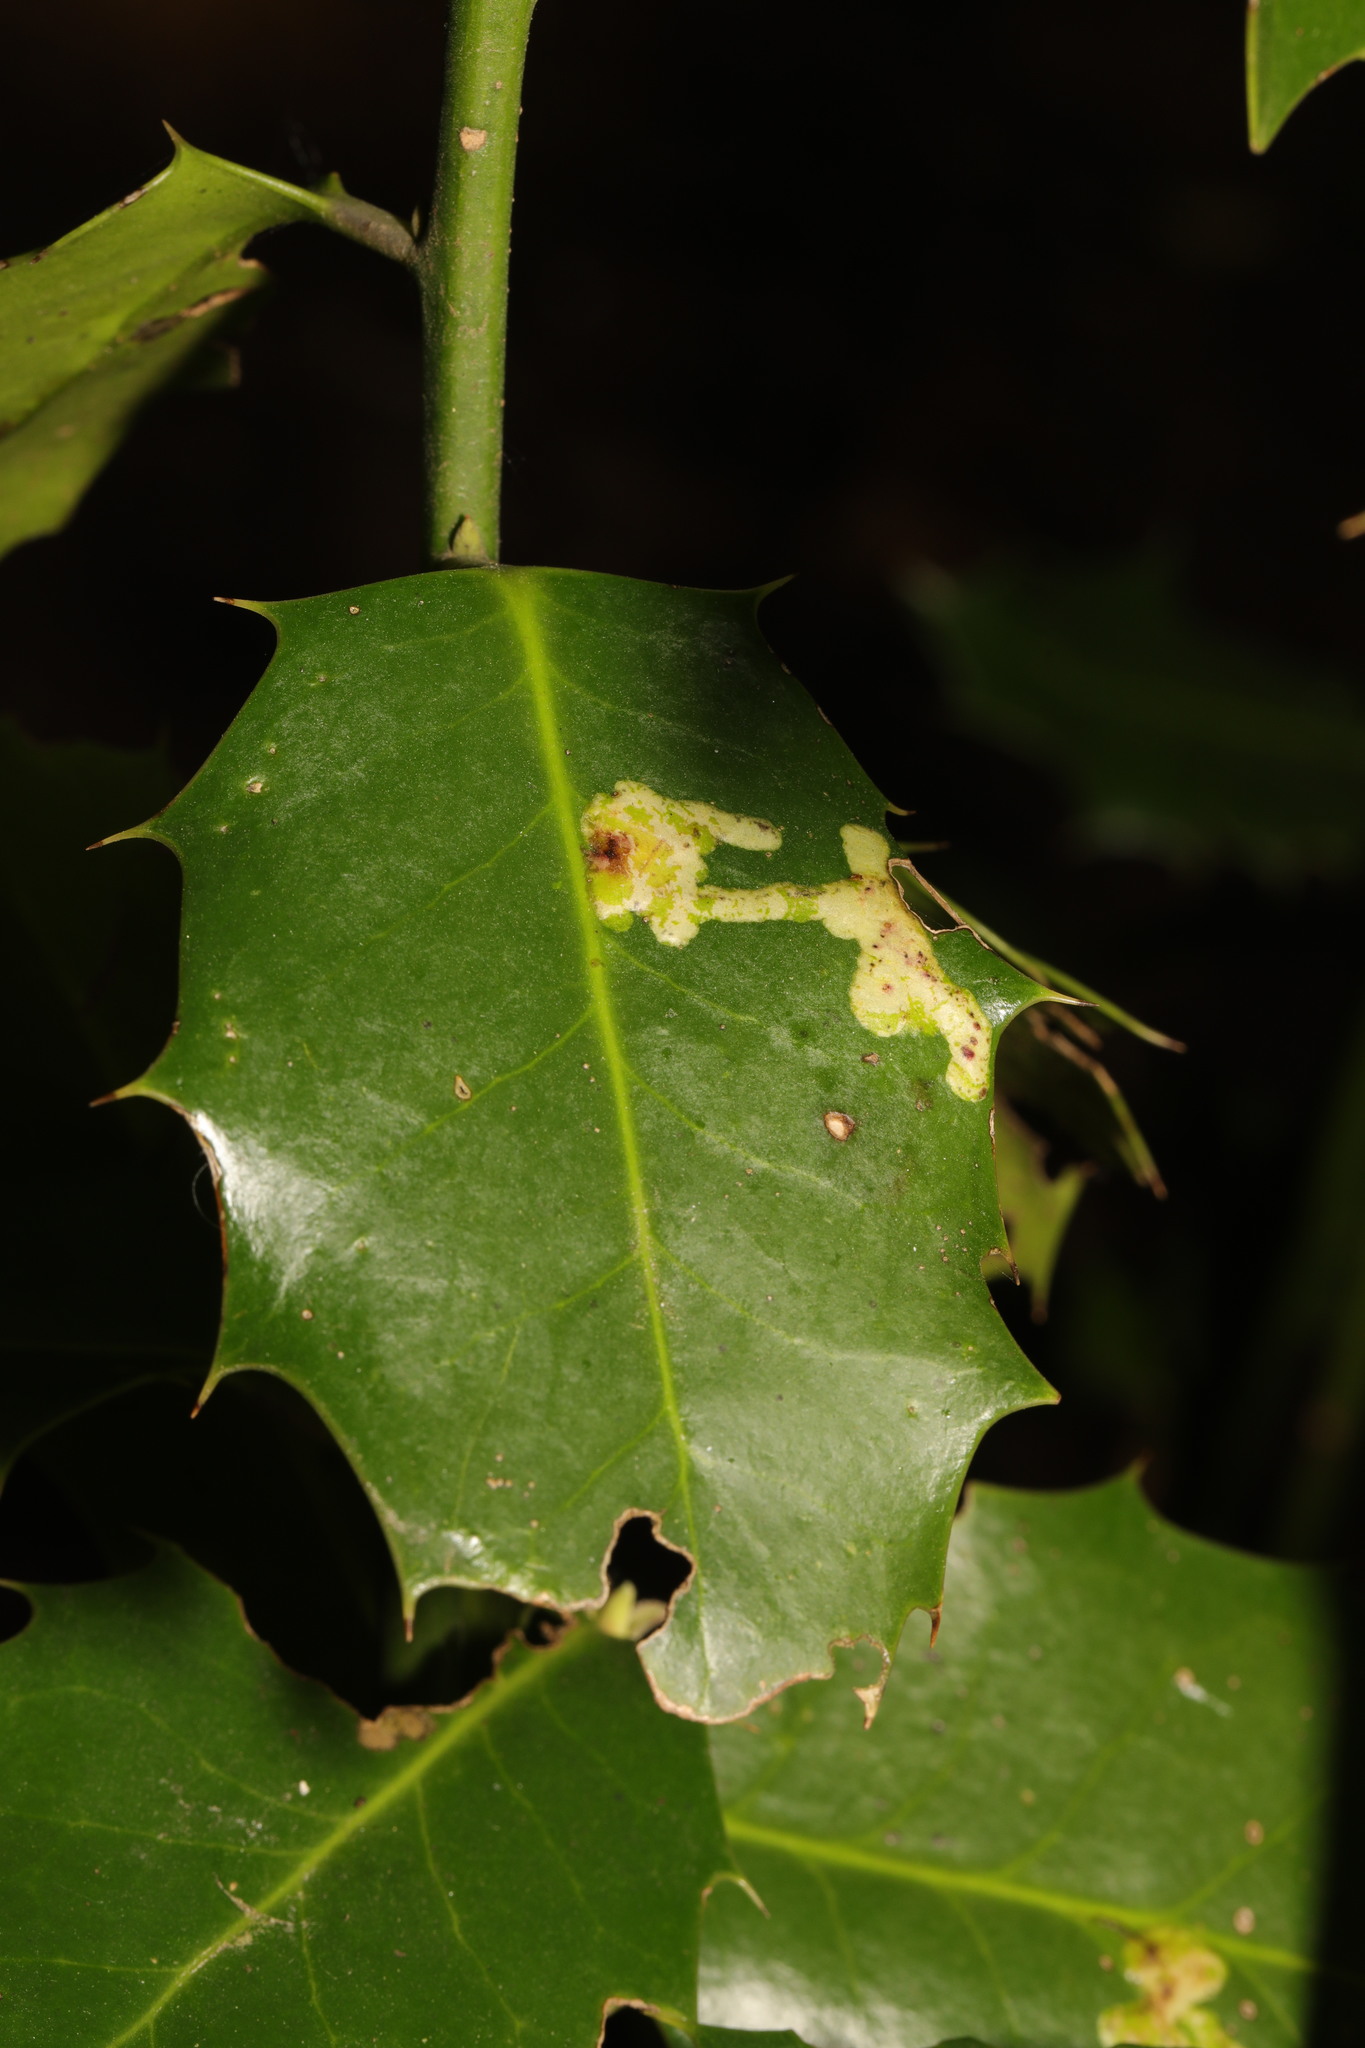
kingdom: Animalia
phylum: Arthropoda
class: Insecta
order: Diptera
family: Agromyzidae
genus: Phytomyza
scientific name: Phytomyza ilicis
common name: Holly leafminer
